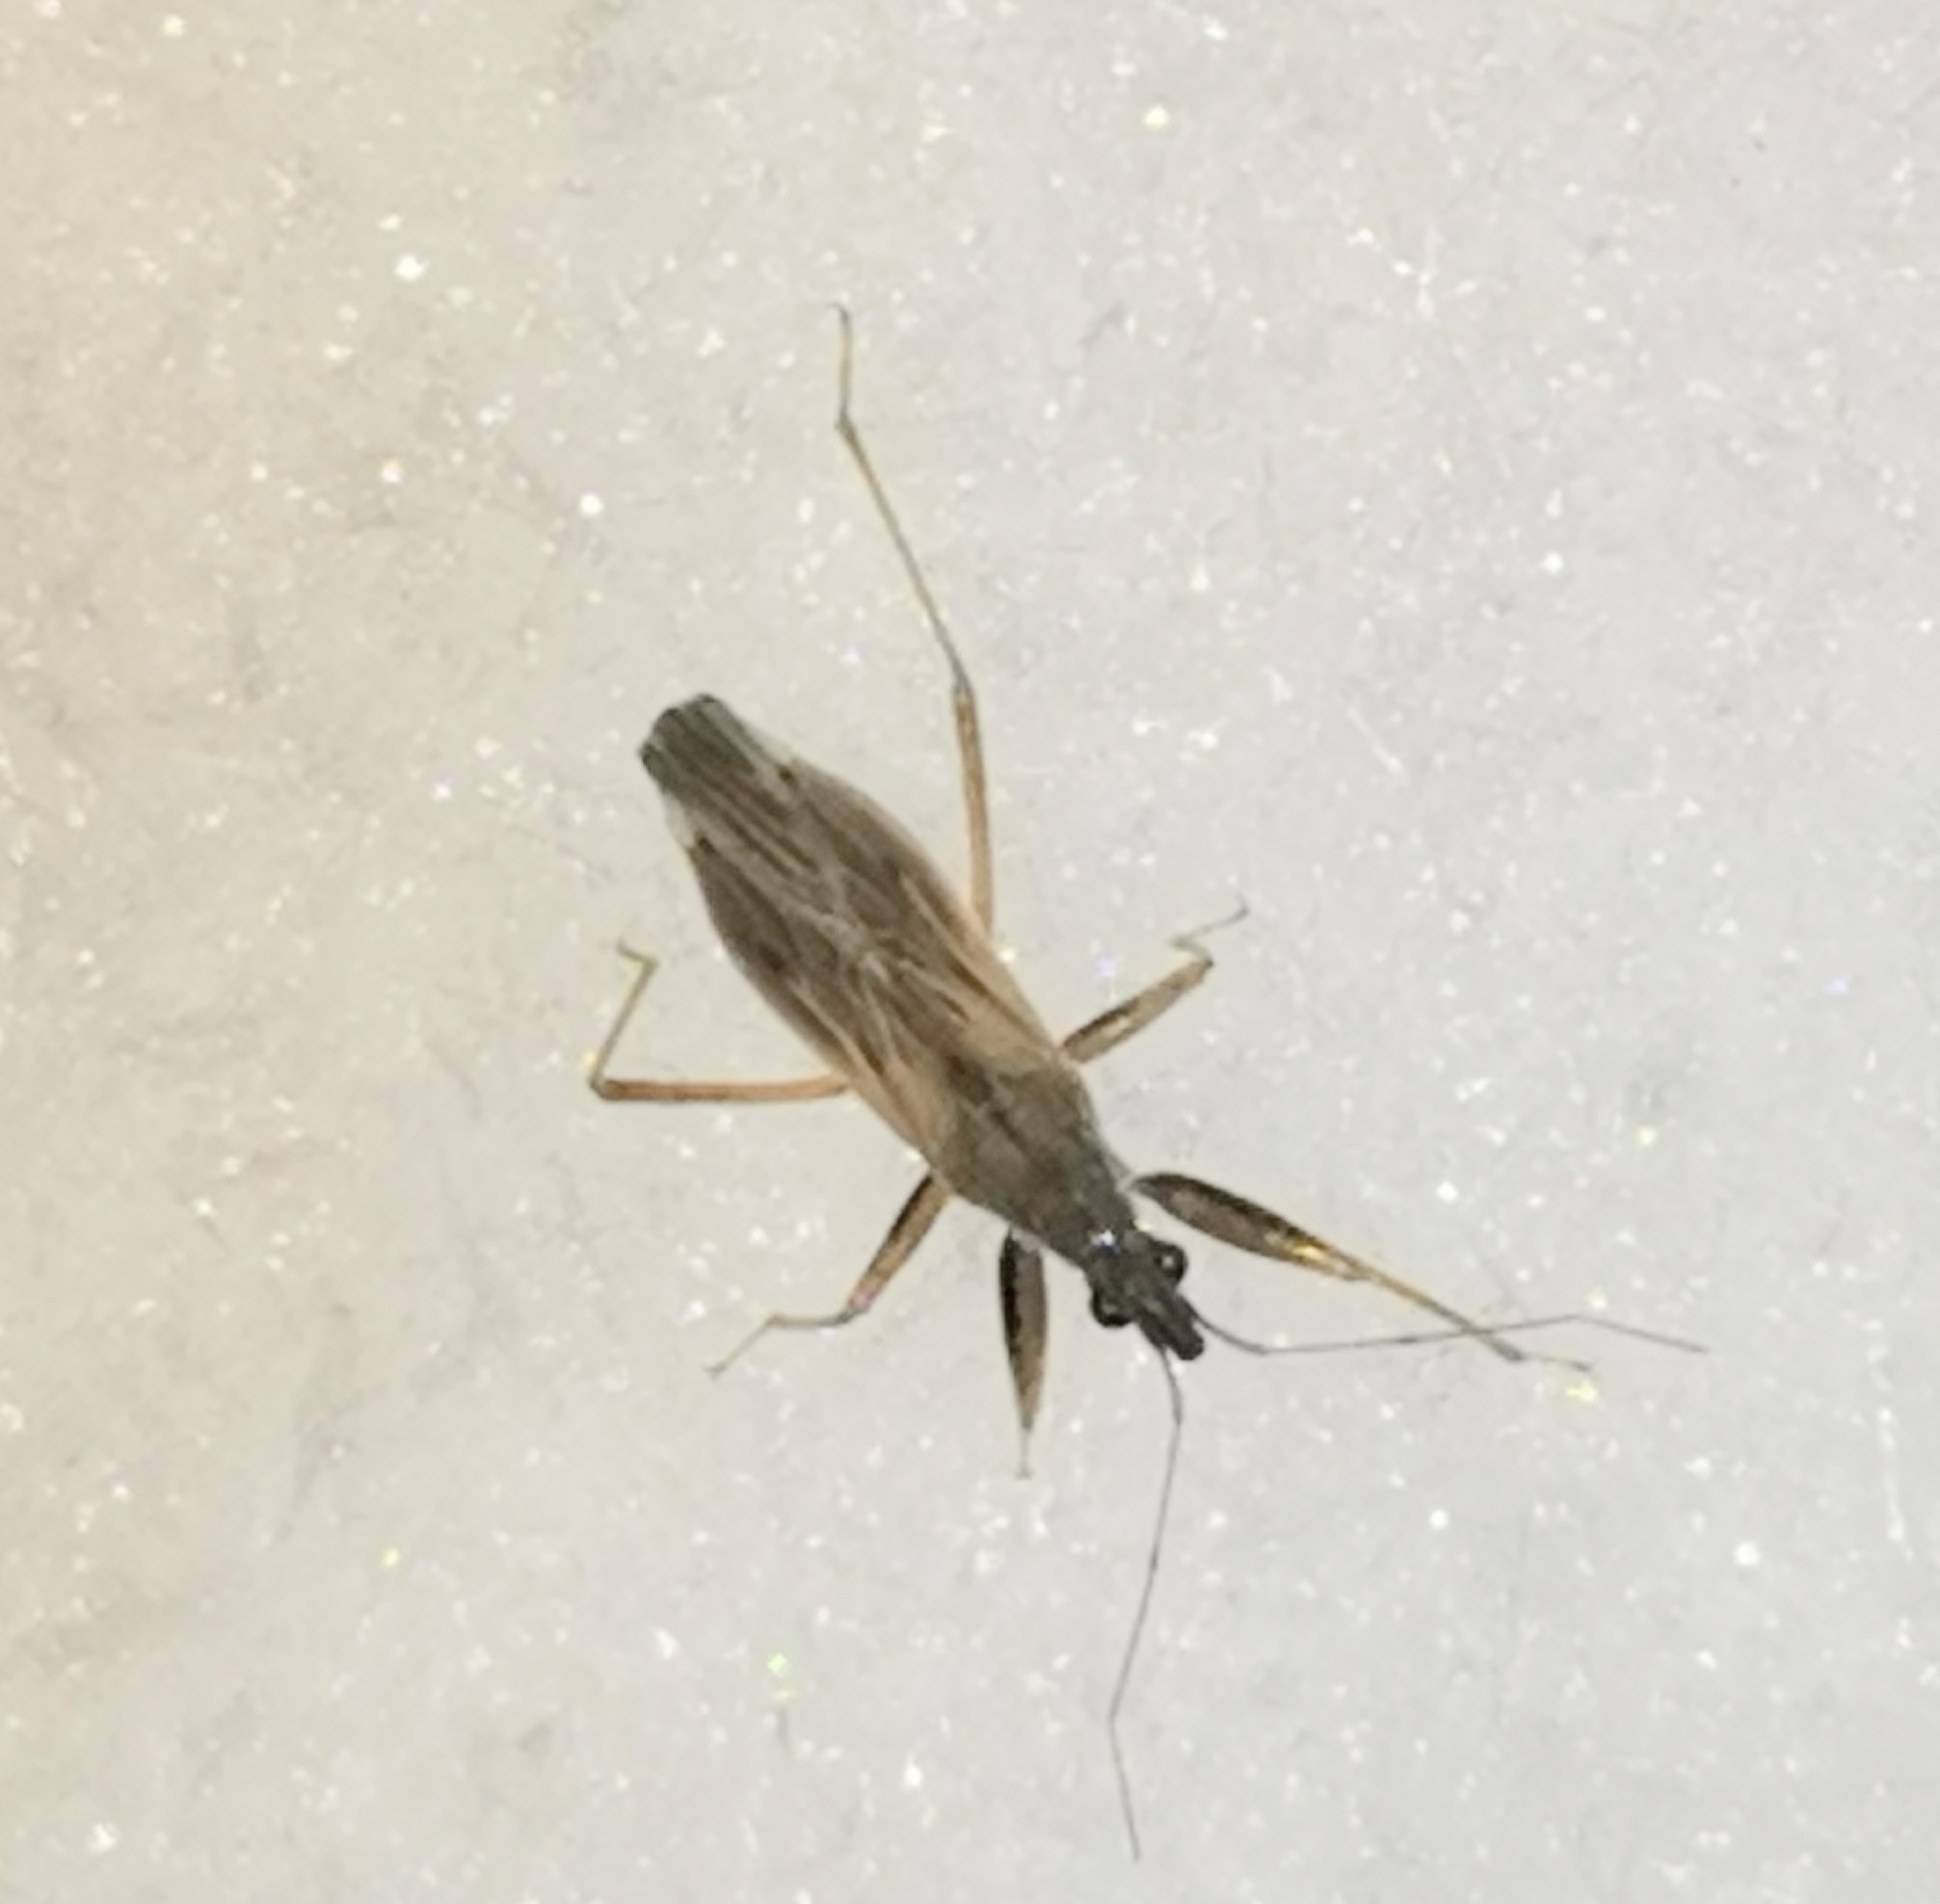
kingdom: Animalia
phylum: Arthropoda
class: Insecta
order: Hemiptera
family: Nabidae
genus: Nabis
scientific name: Nabis brevis
